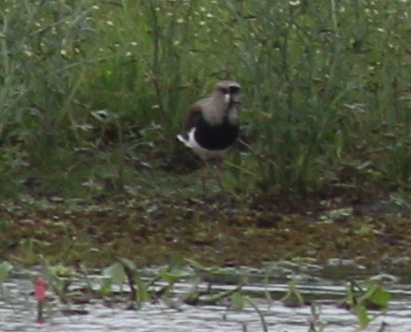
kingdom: Animalia
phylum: Chordata
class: Aves
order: Charadriiformes
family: Charadriidae
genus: Vanellus
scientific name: Vanellus chilensis
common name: Southern lapwing
